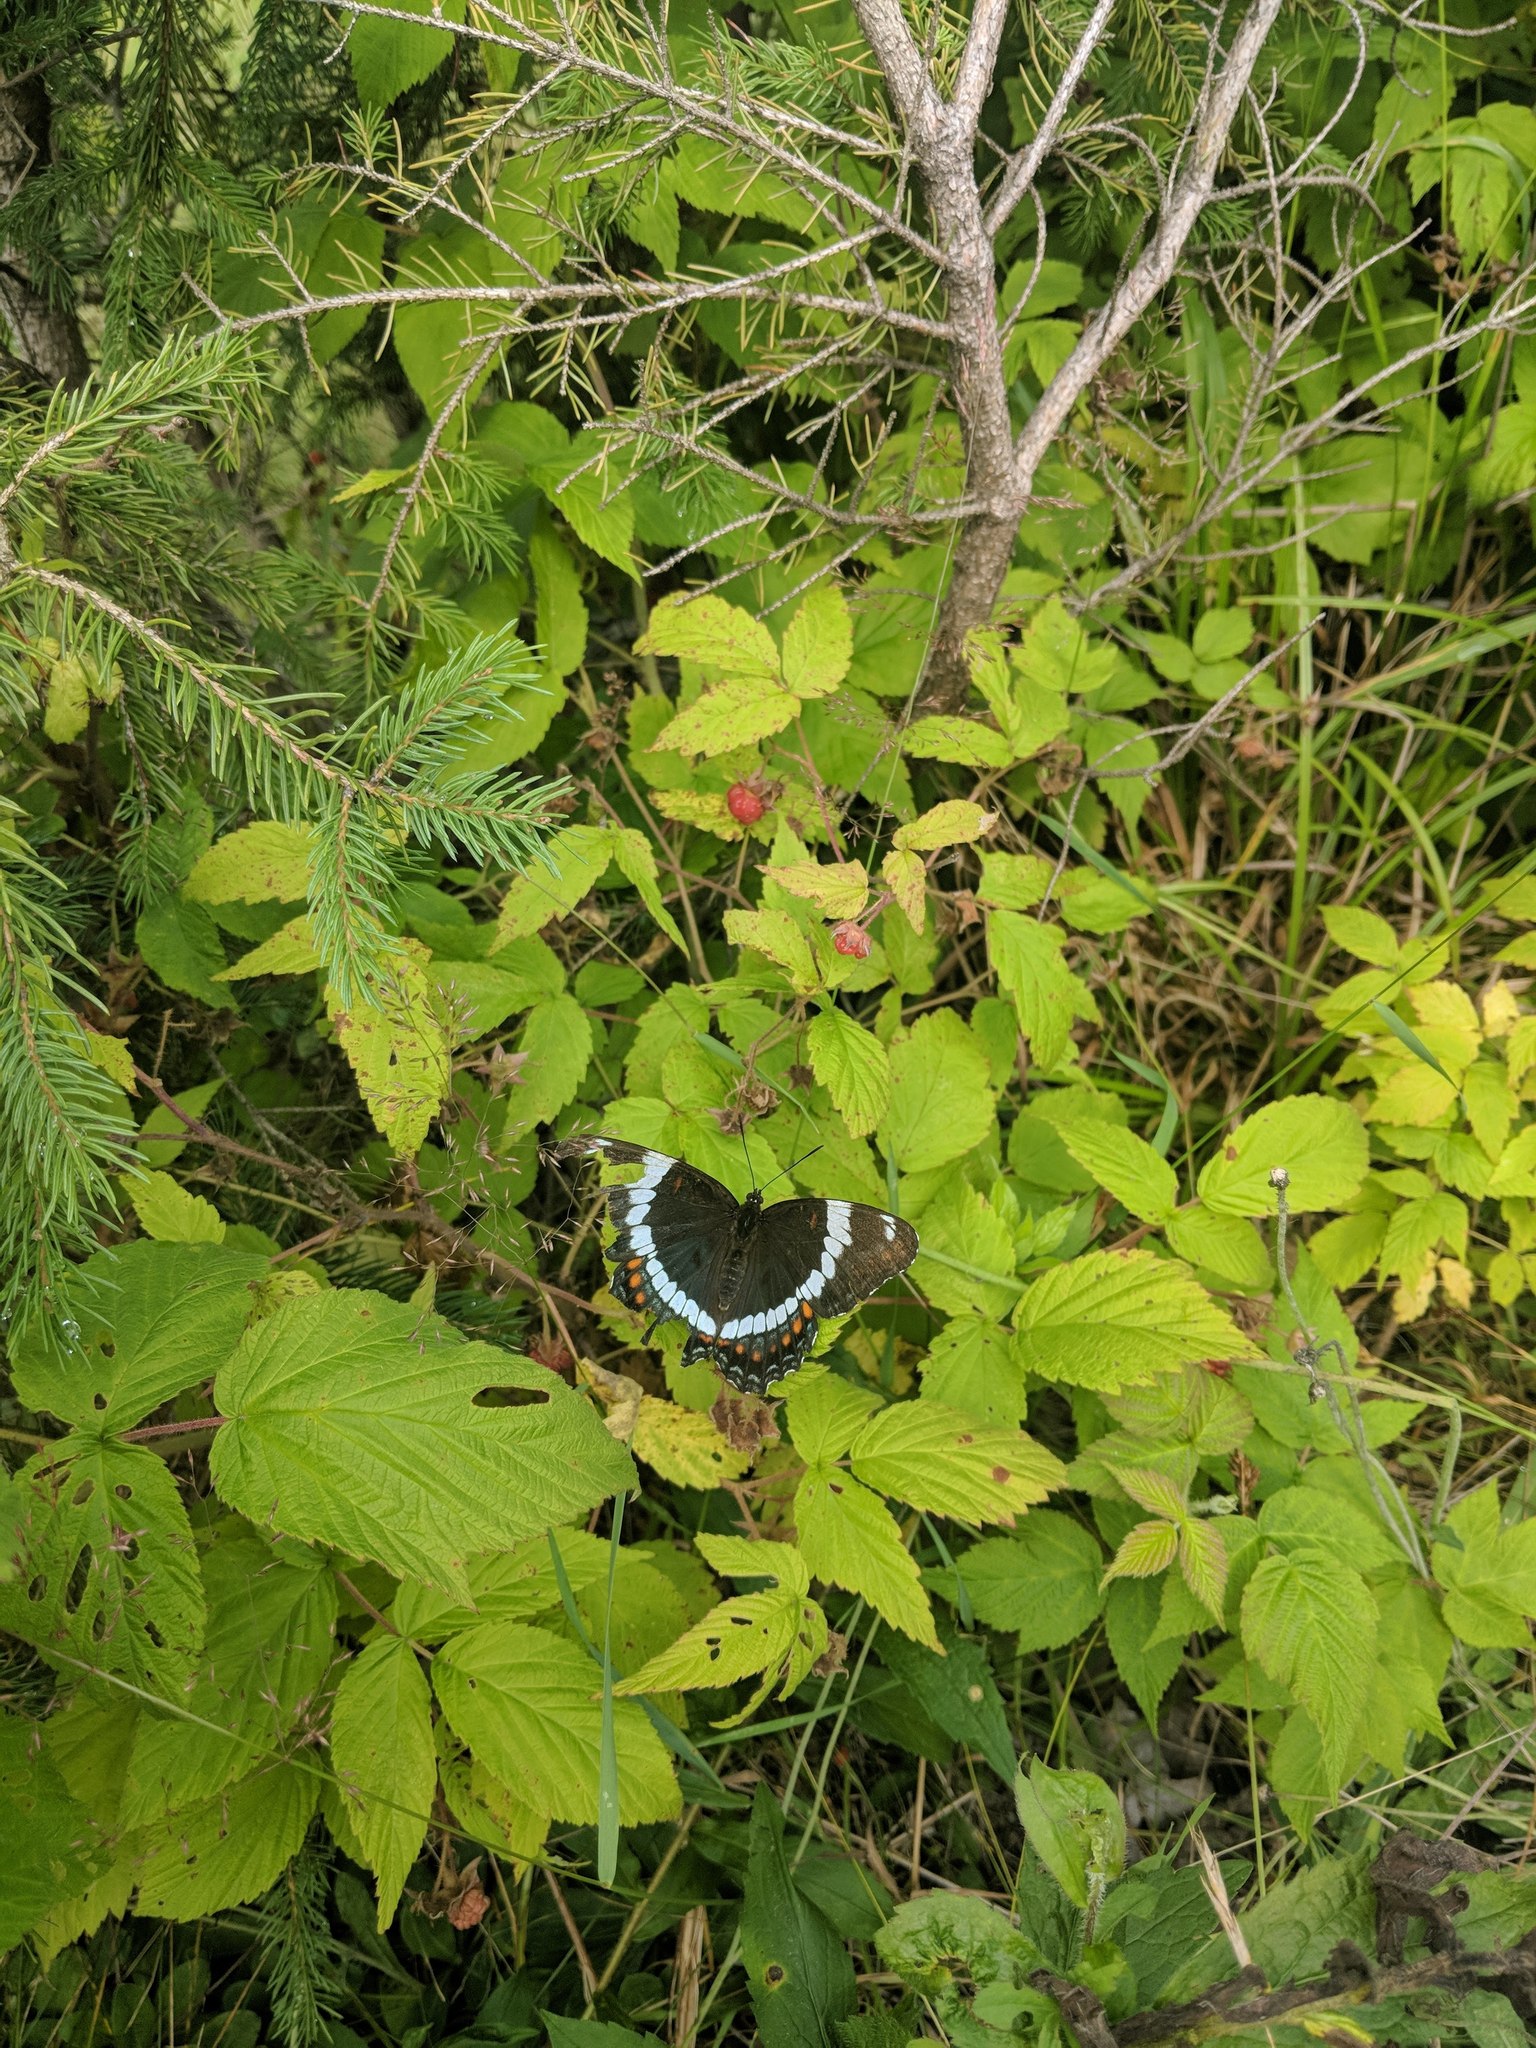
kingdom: Animalia
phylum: Arthropoda
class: Insecta
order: Lepidoptera
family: Nymphalidae
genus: Limenitis
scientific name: Limenitis arthemis
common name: Red-spotted admiral
